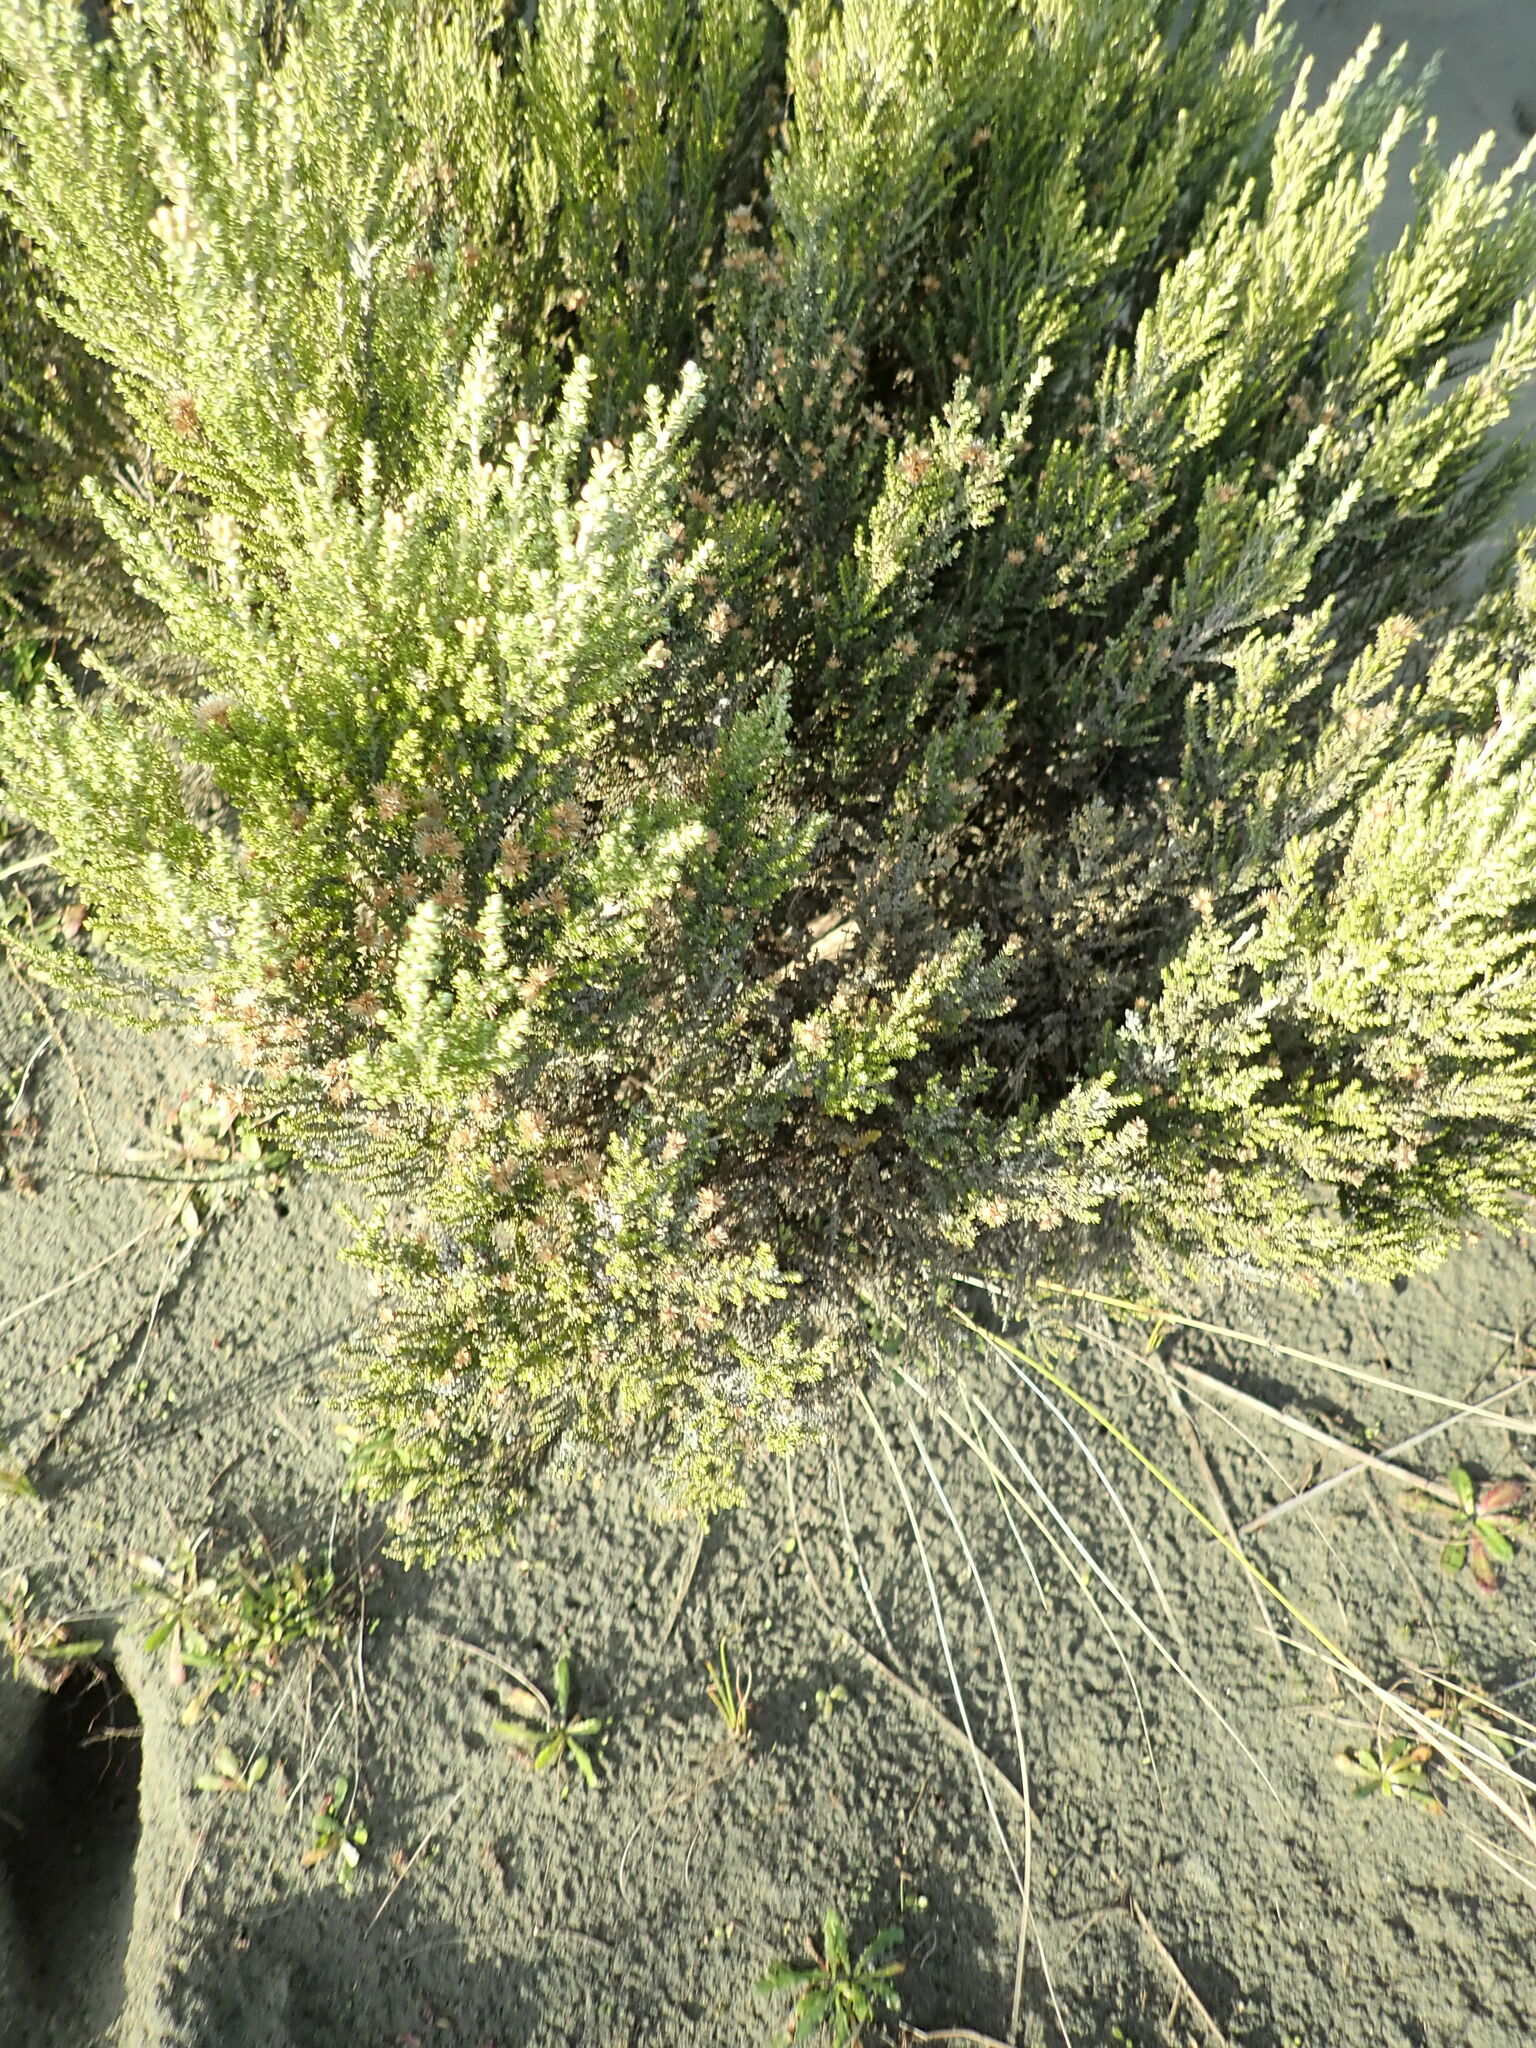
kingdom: Plantae
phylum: Tracheophyta
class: Magnoliopsida
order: Asterales
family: Asteraceae
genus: Ozothamnus
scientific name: Ozothamnus leptophyllus
